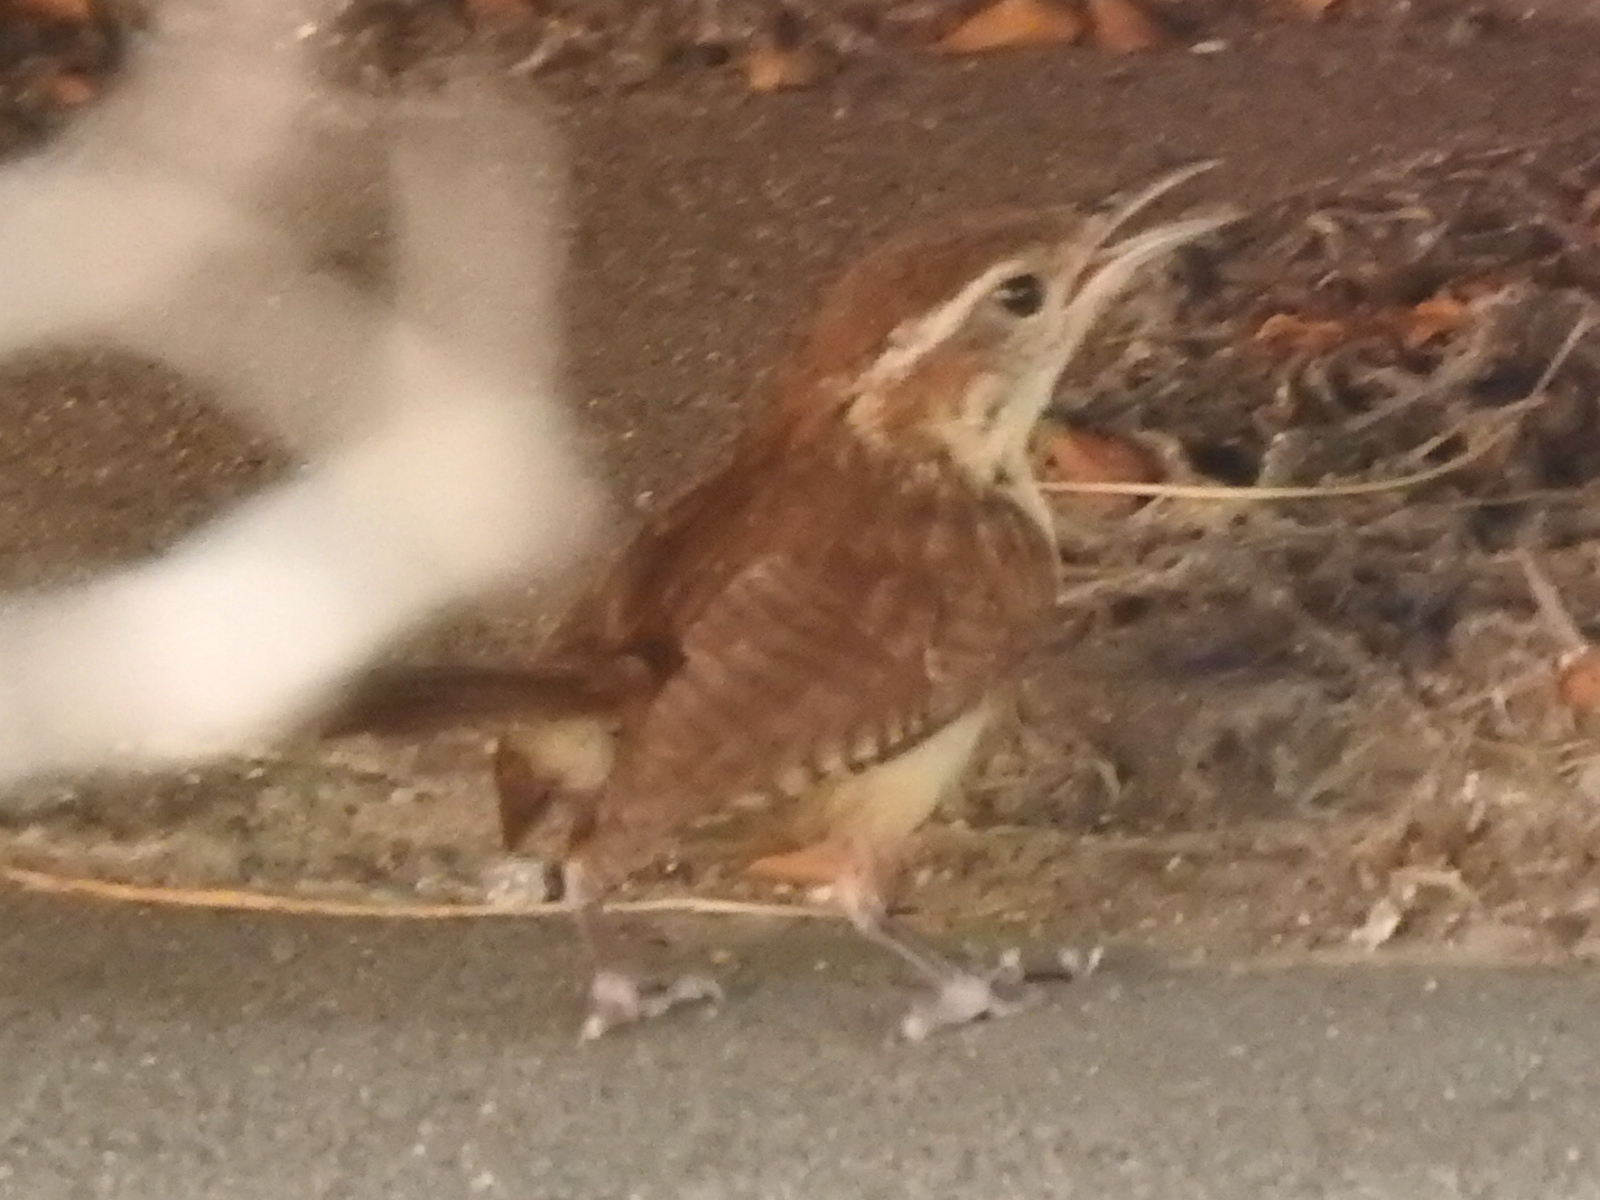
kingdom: Animalia
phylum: Chordata
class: Aves
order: Passeriformes
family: Troglodytidae
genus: Thryothorus
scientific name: Thryothorus ludovicianus
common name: Carolina wren
